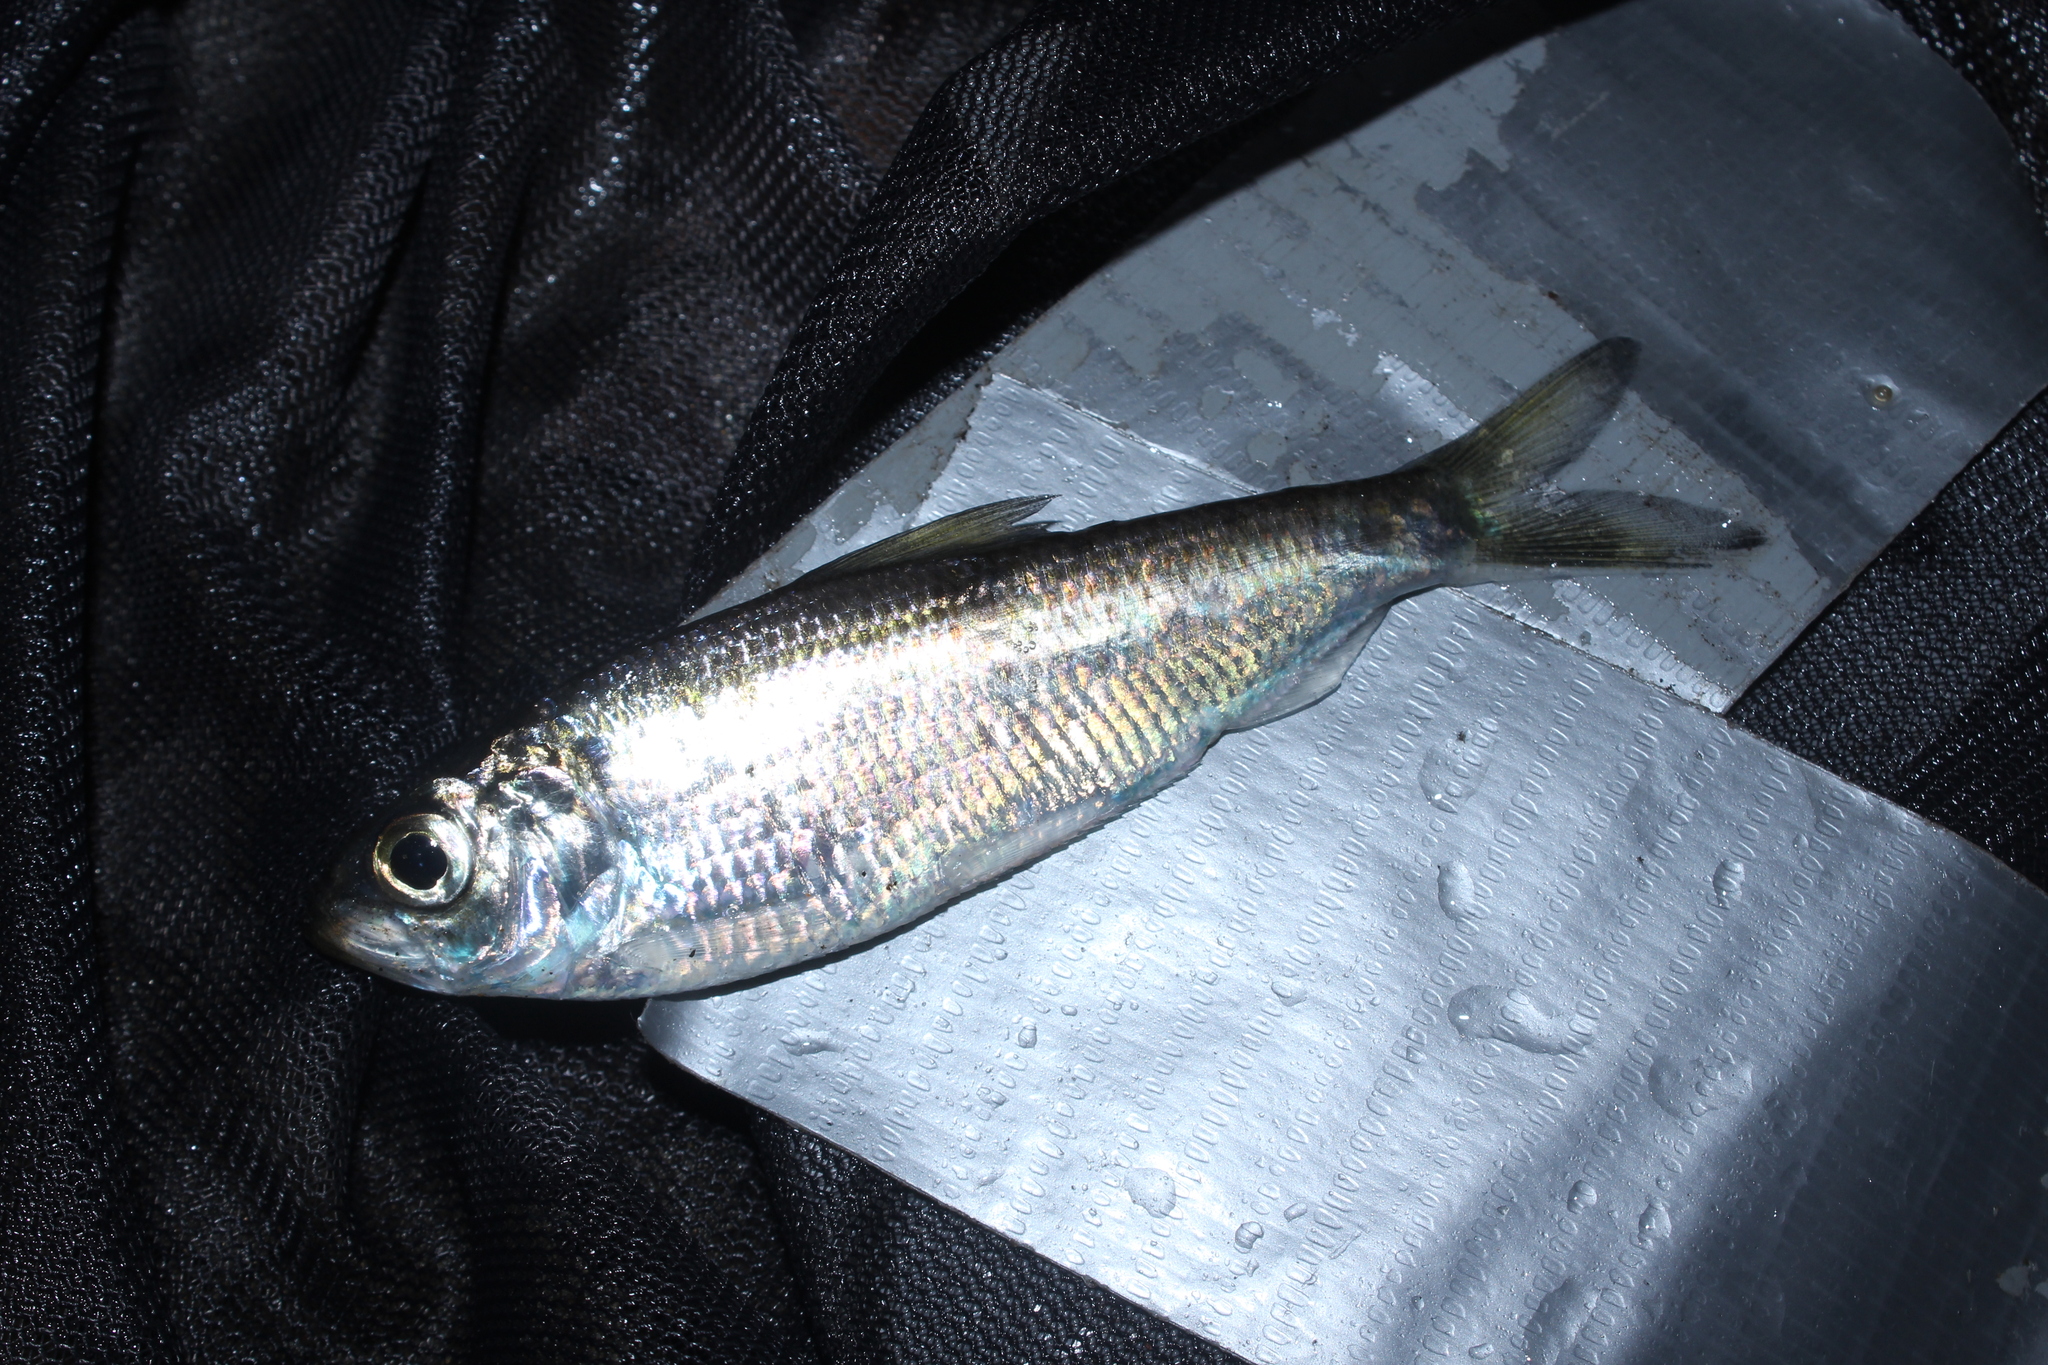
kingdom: Animalia
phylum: Chordata
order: Clupeiformes
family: Clupeidae
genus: Alosa
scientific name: Alosa pseudoharengus
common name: Alewife
